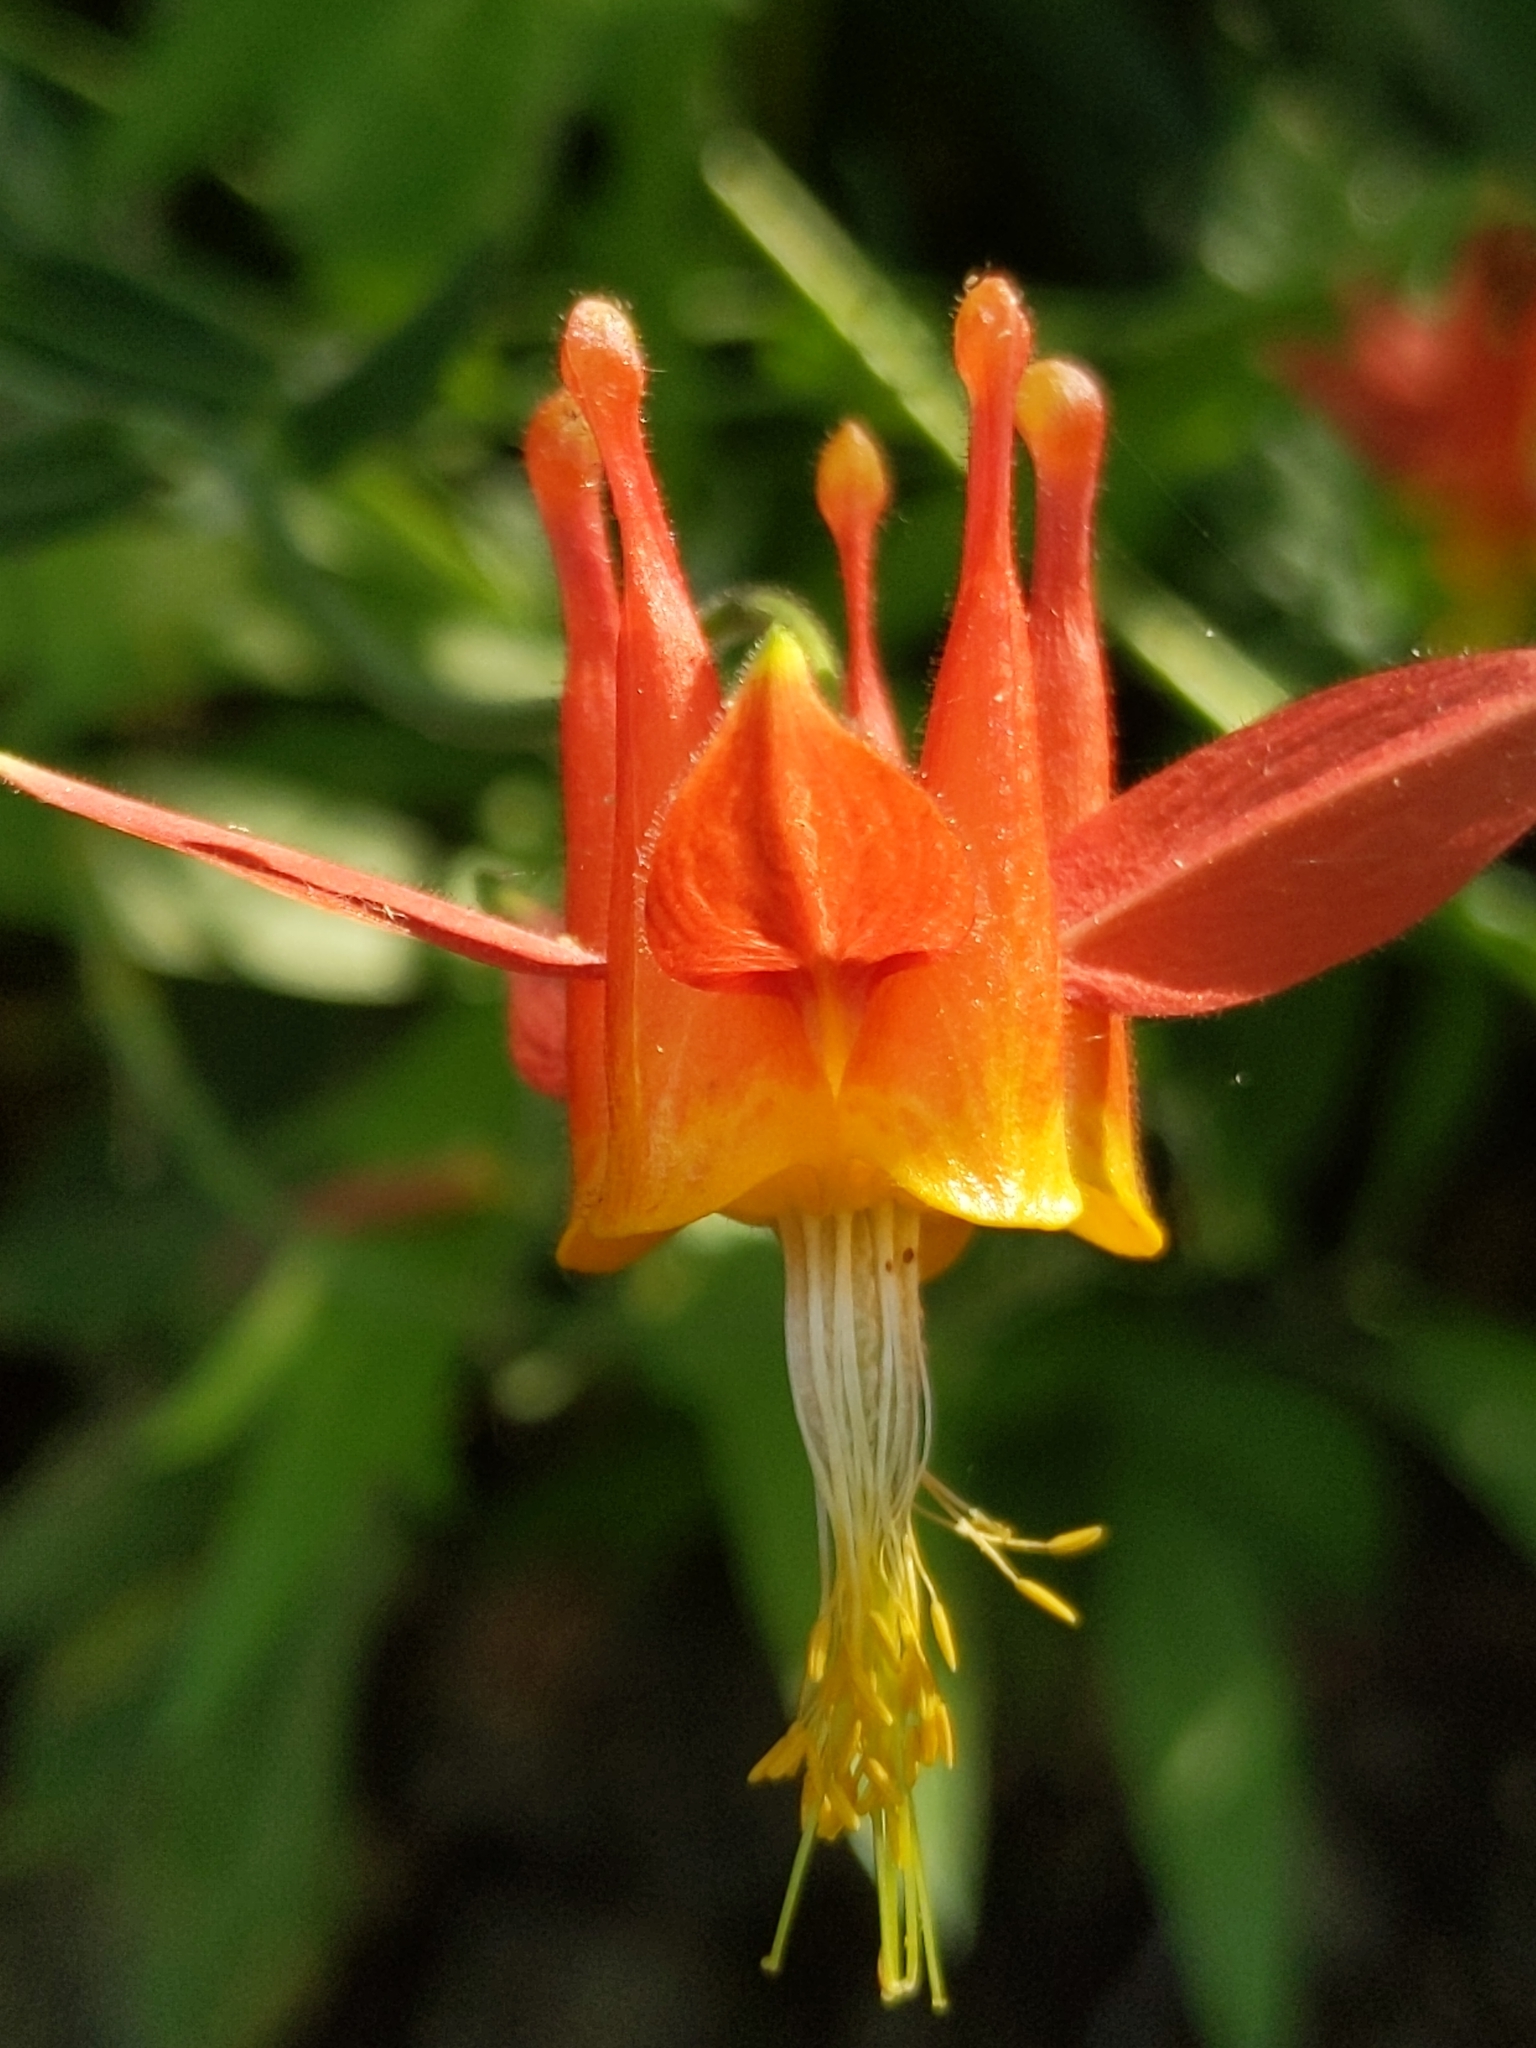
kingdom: Plantae
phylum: Tracheophyta
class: Magnoliopsida
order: Ranunculales
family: Ranunculaceae
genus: Aquilegia
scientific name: Aquilegia formosa
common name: Sitka columbine
